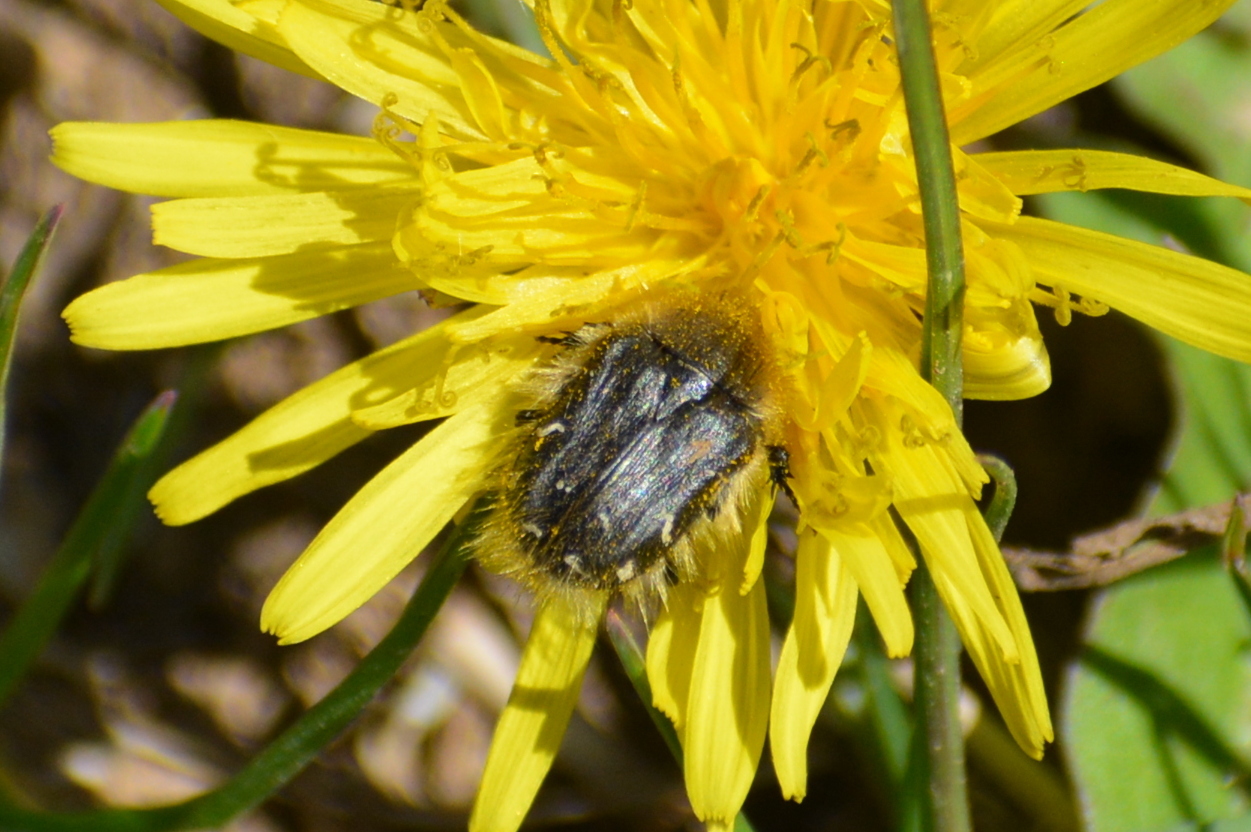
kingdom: Animalia
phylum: Arthropoda
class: Insecta
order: Coleoptera
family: Scarabaeidae
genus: Tropinota
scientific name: Tropinota hirta
